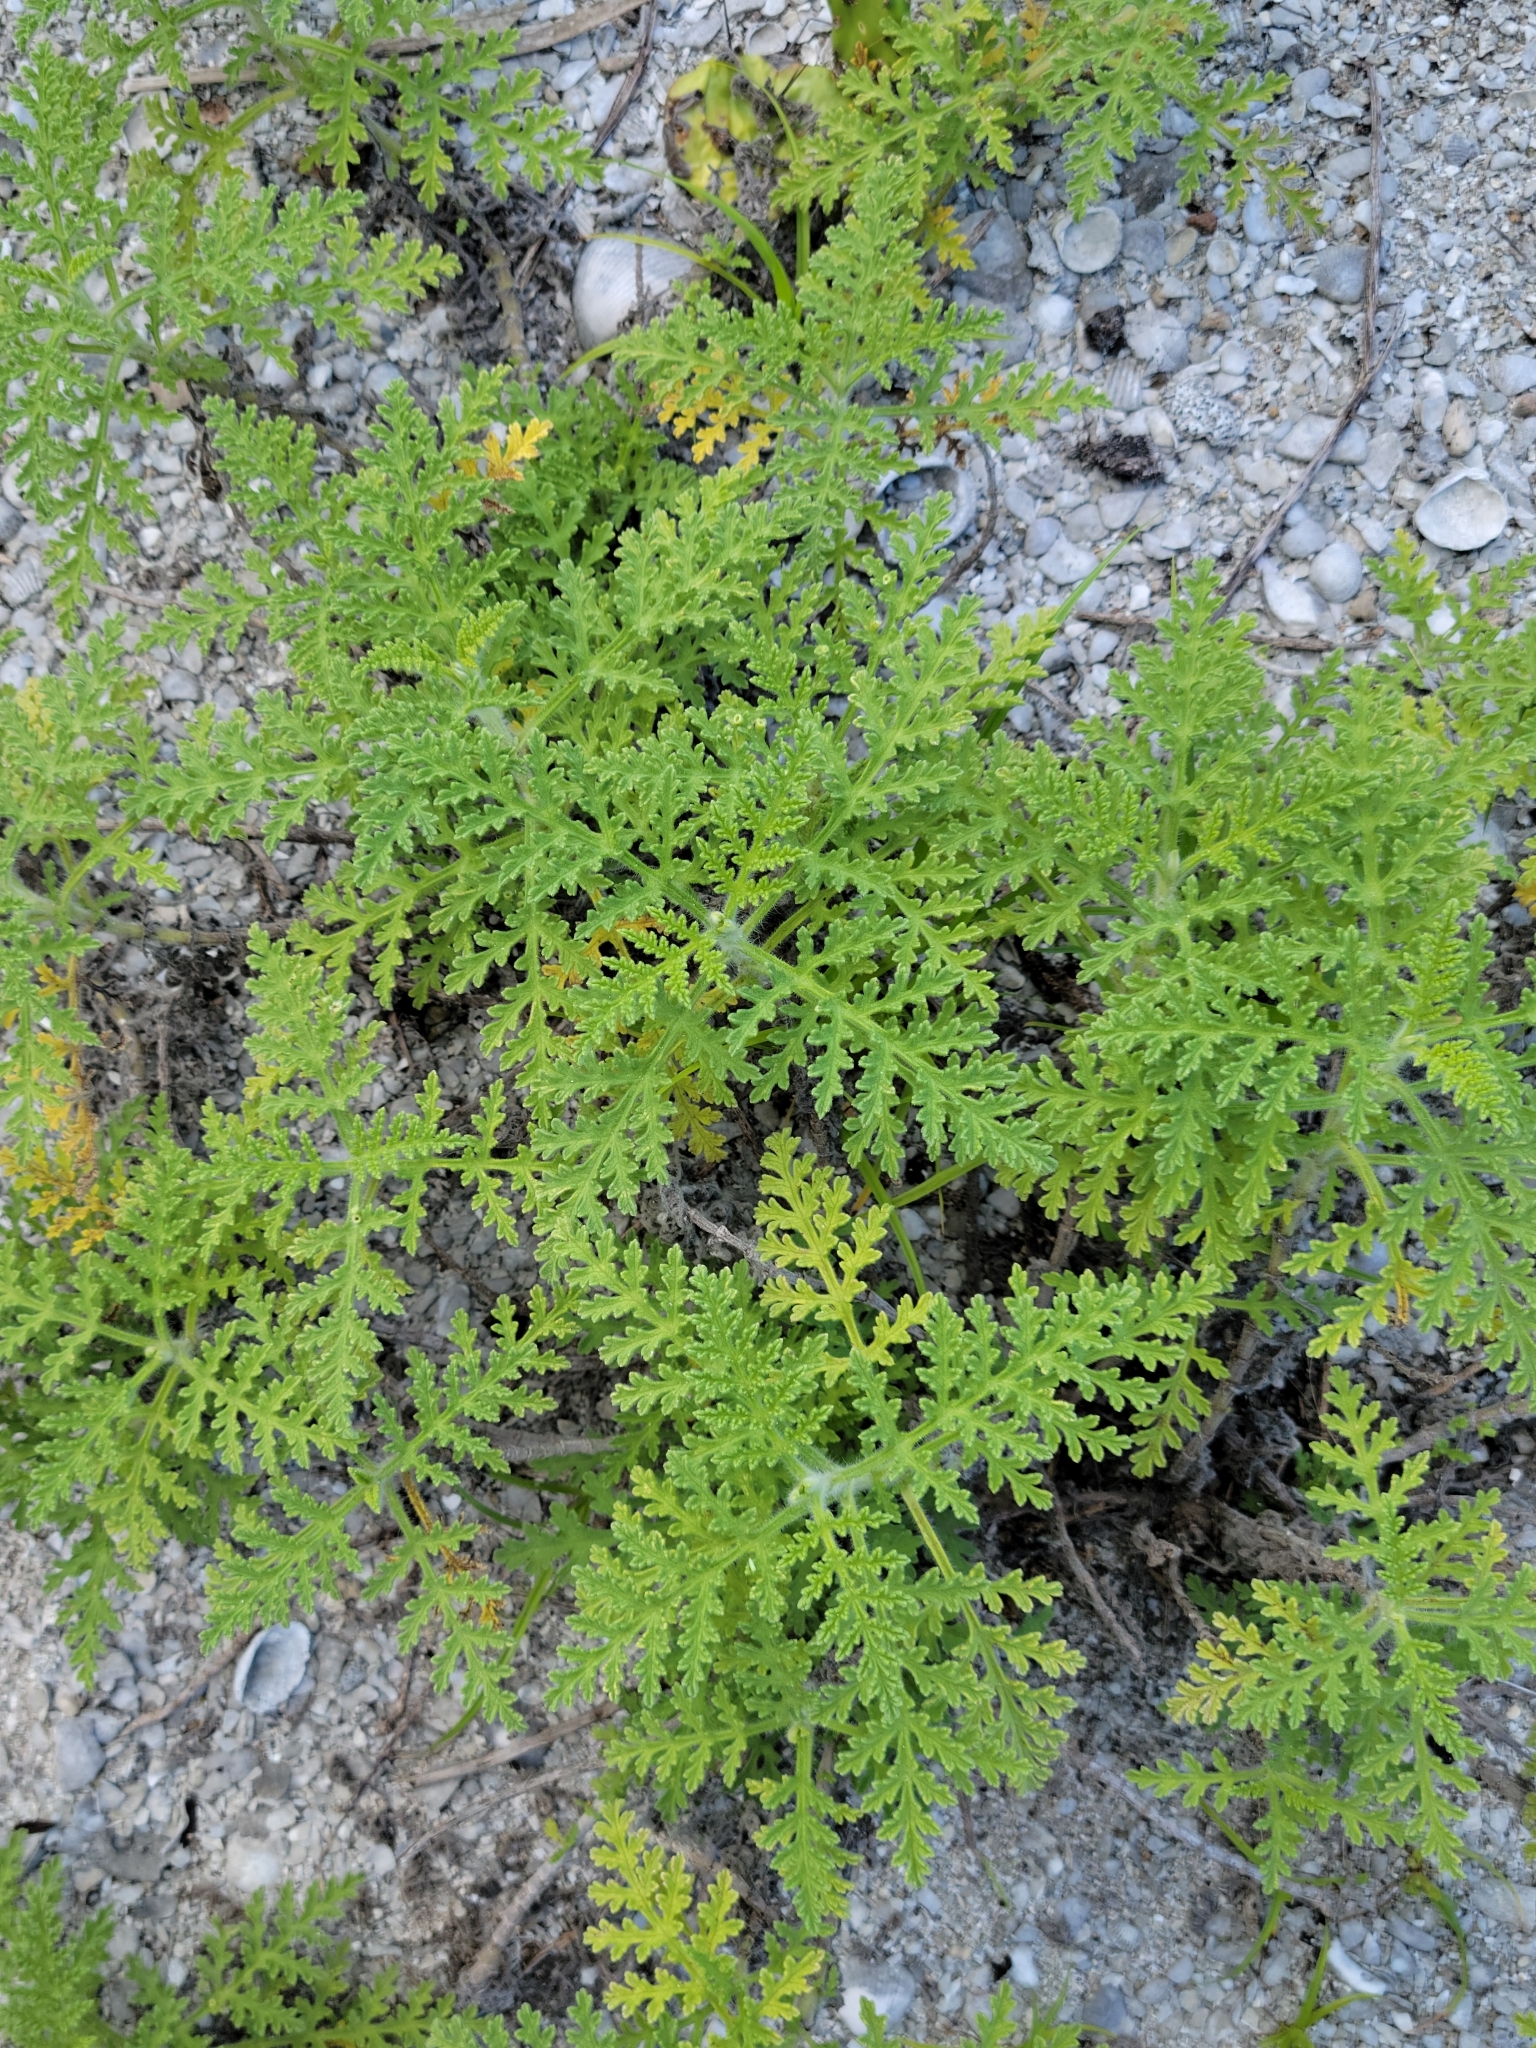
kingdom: Plantae
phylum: Tracheophyta
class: Magnoliopsida
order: Asterales
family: Asteraceae
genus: Ambrosia
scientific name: Ambrosia hispida
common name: Coastal ragweed
